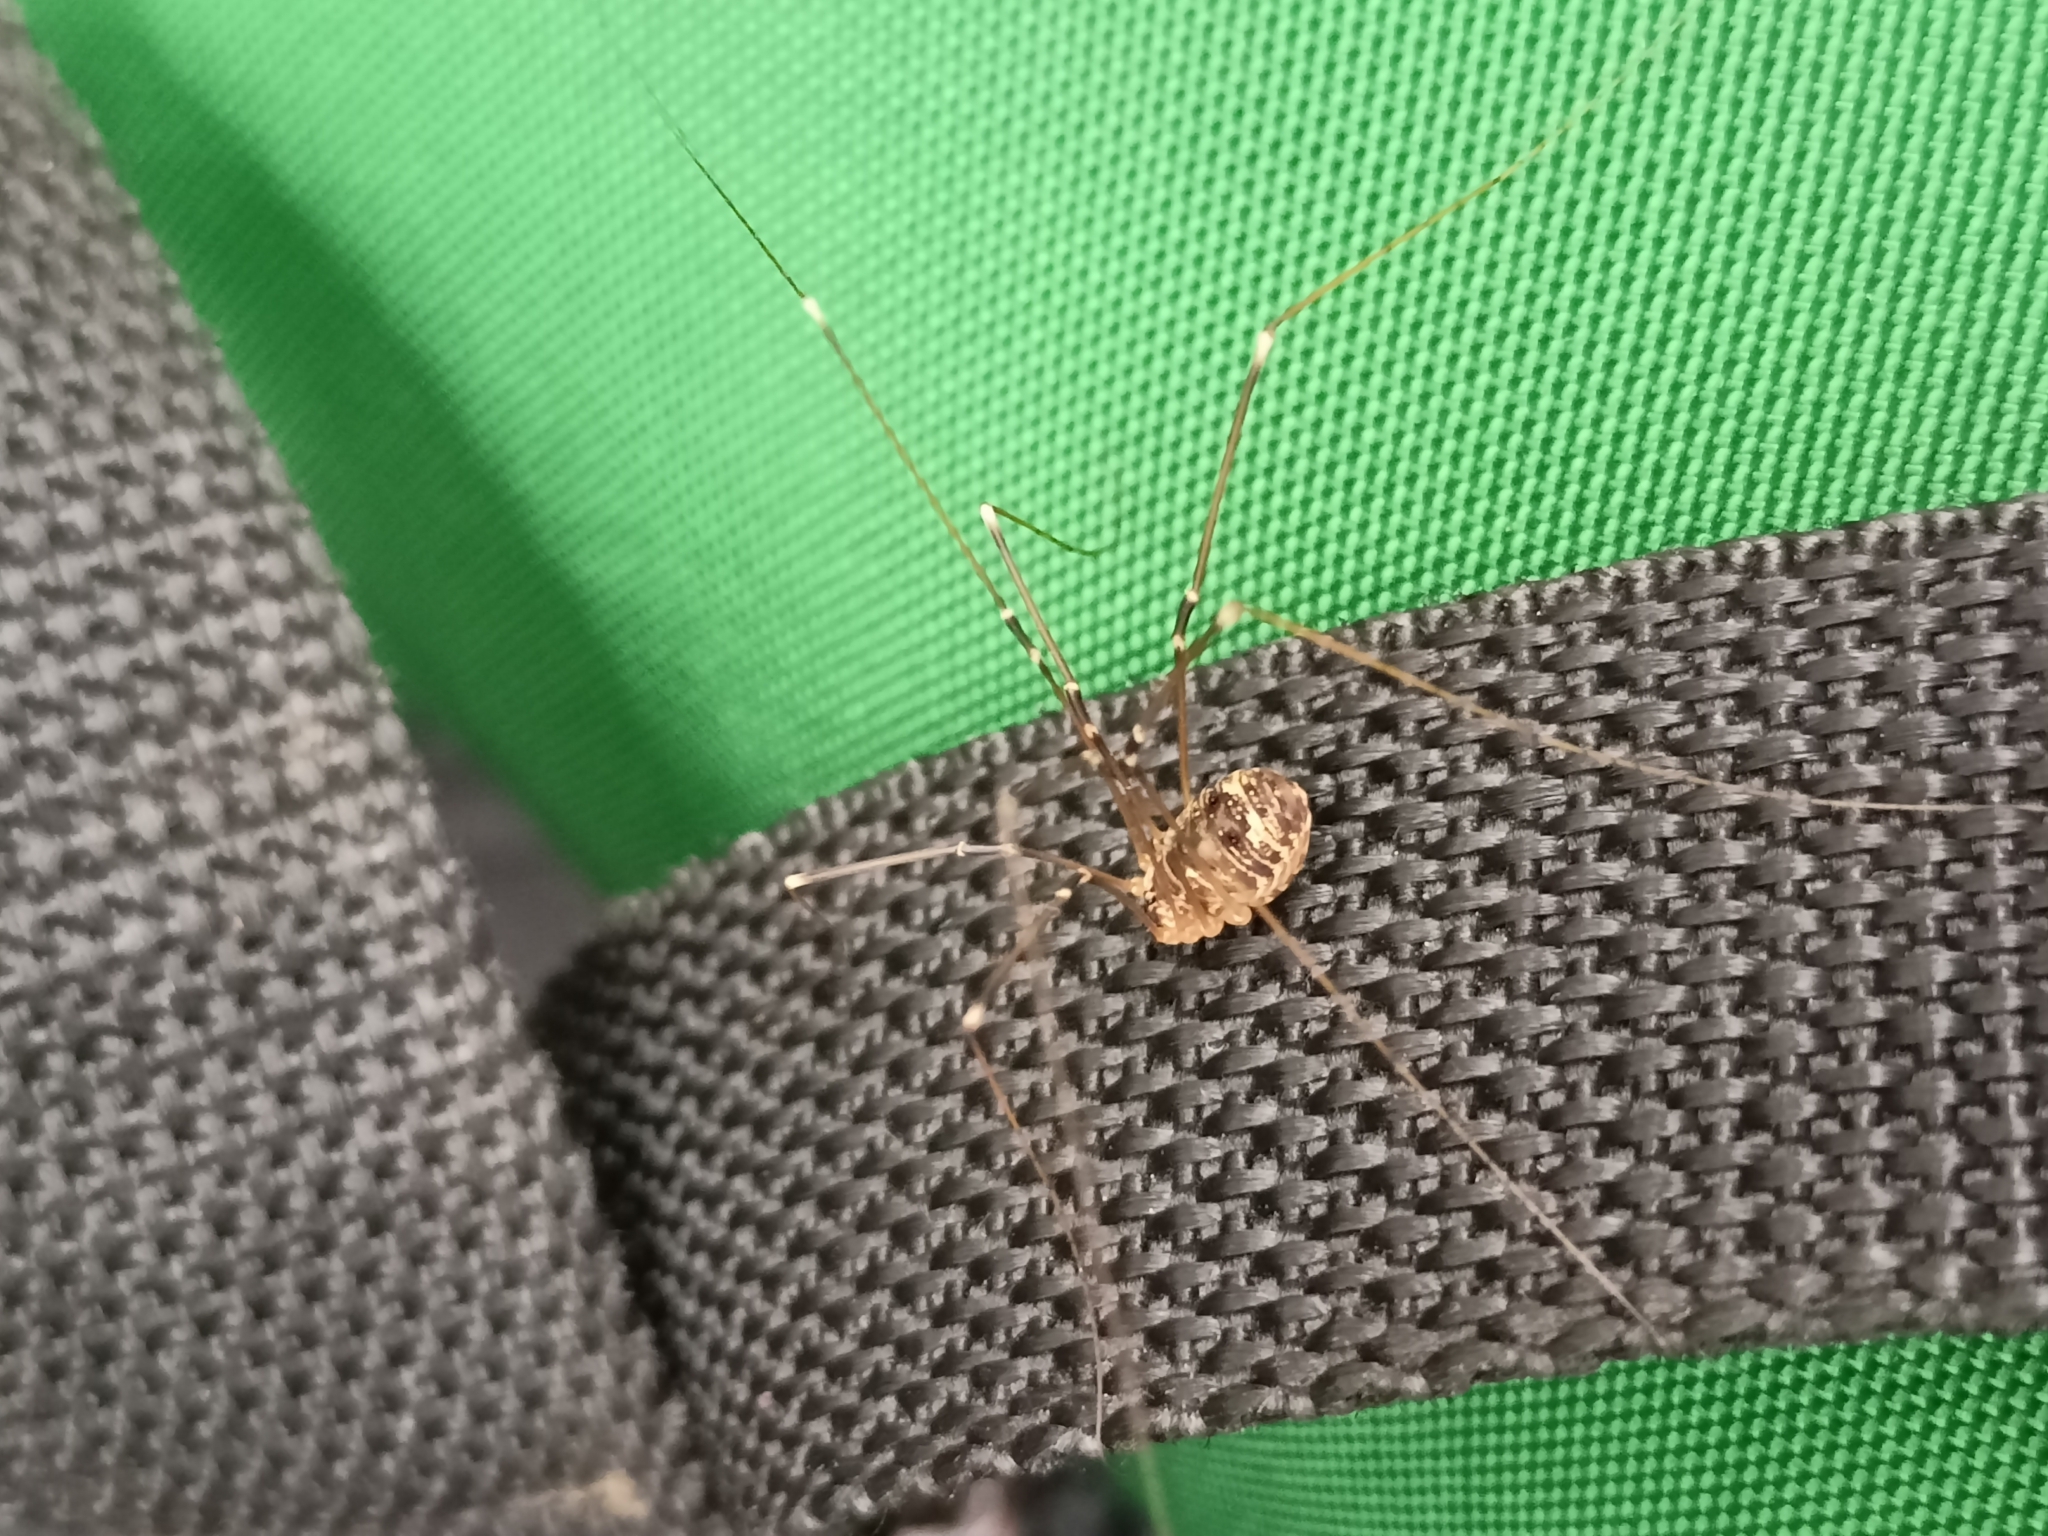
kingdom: Animalia
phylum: Arthropoda
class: Arachnida
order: Opiliones
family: Sclerosomatidae
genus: Leiobunum
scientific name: Leiobunum gracile
